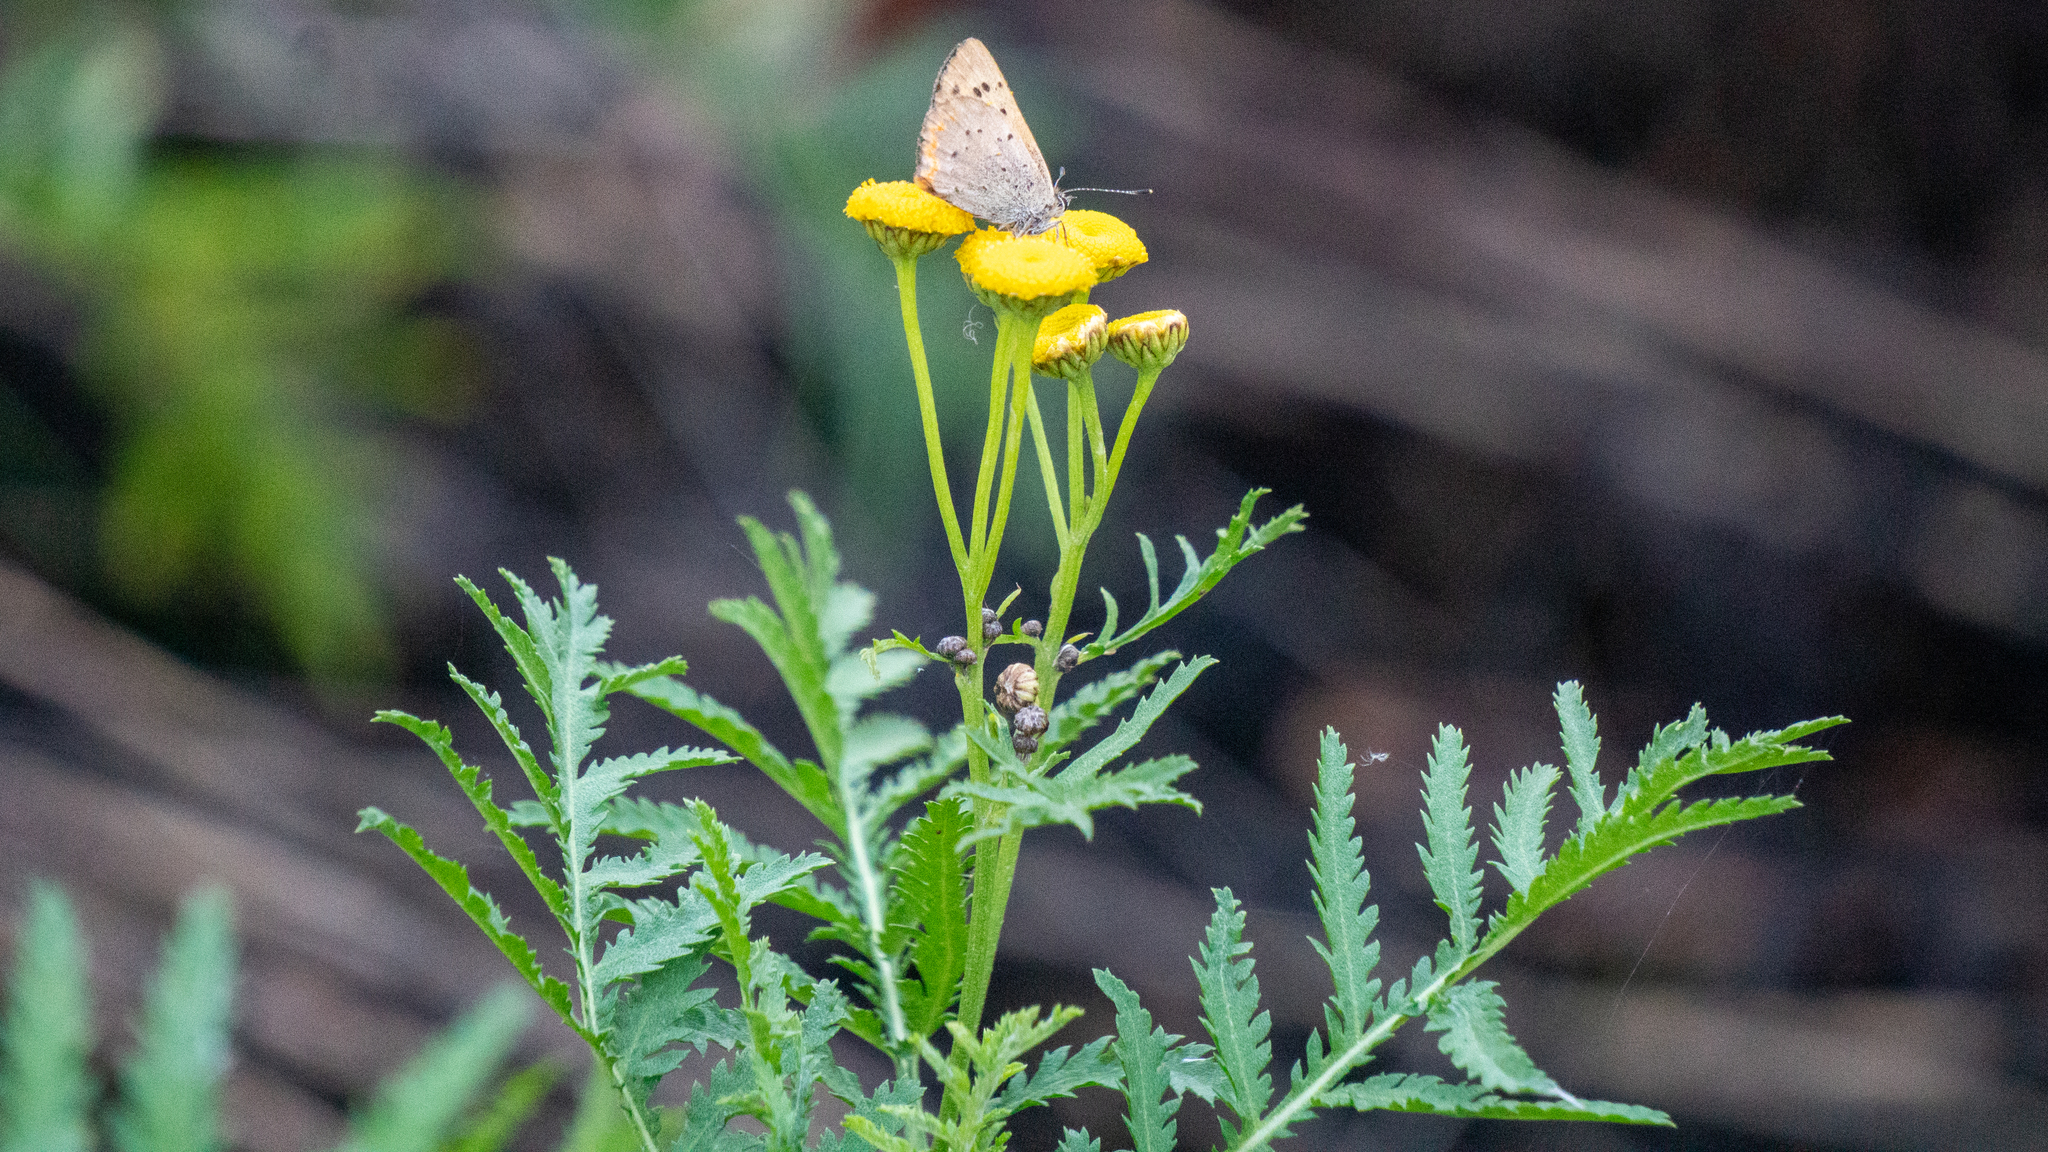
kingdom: Plantae
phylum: Tracheophyta
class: Magnoliopsida
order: Asterales
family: Asteraceae
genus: Tanacetum
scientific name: Tanacetum vulgare
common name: Common tansy
